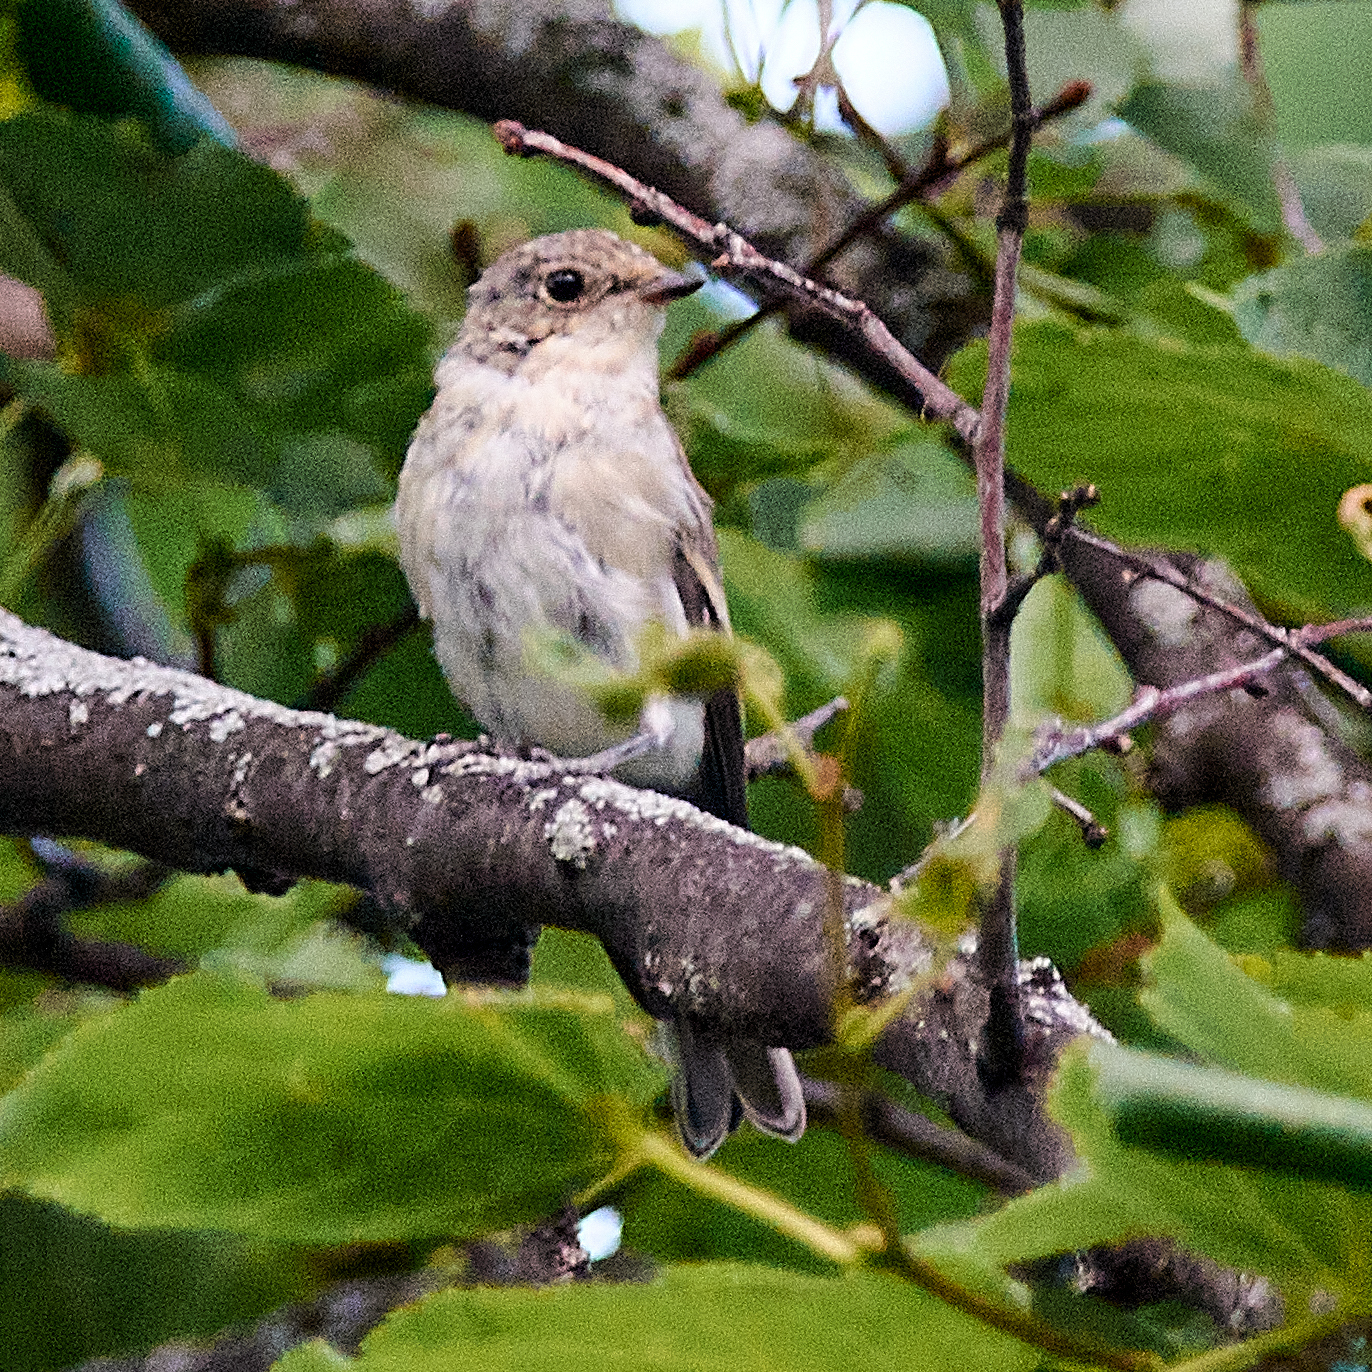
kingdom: Animalia
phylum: Chordata
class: Aves
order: Passeriformes
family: Muscicapidae
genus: Ficedula
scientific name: Ficedula hypoleuca
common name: European pied flycatcher
